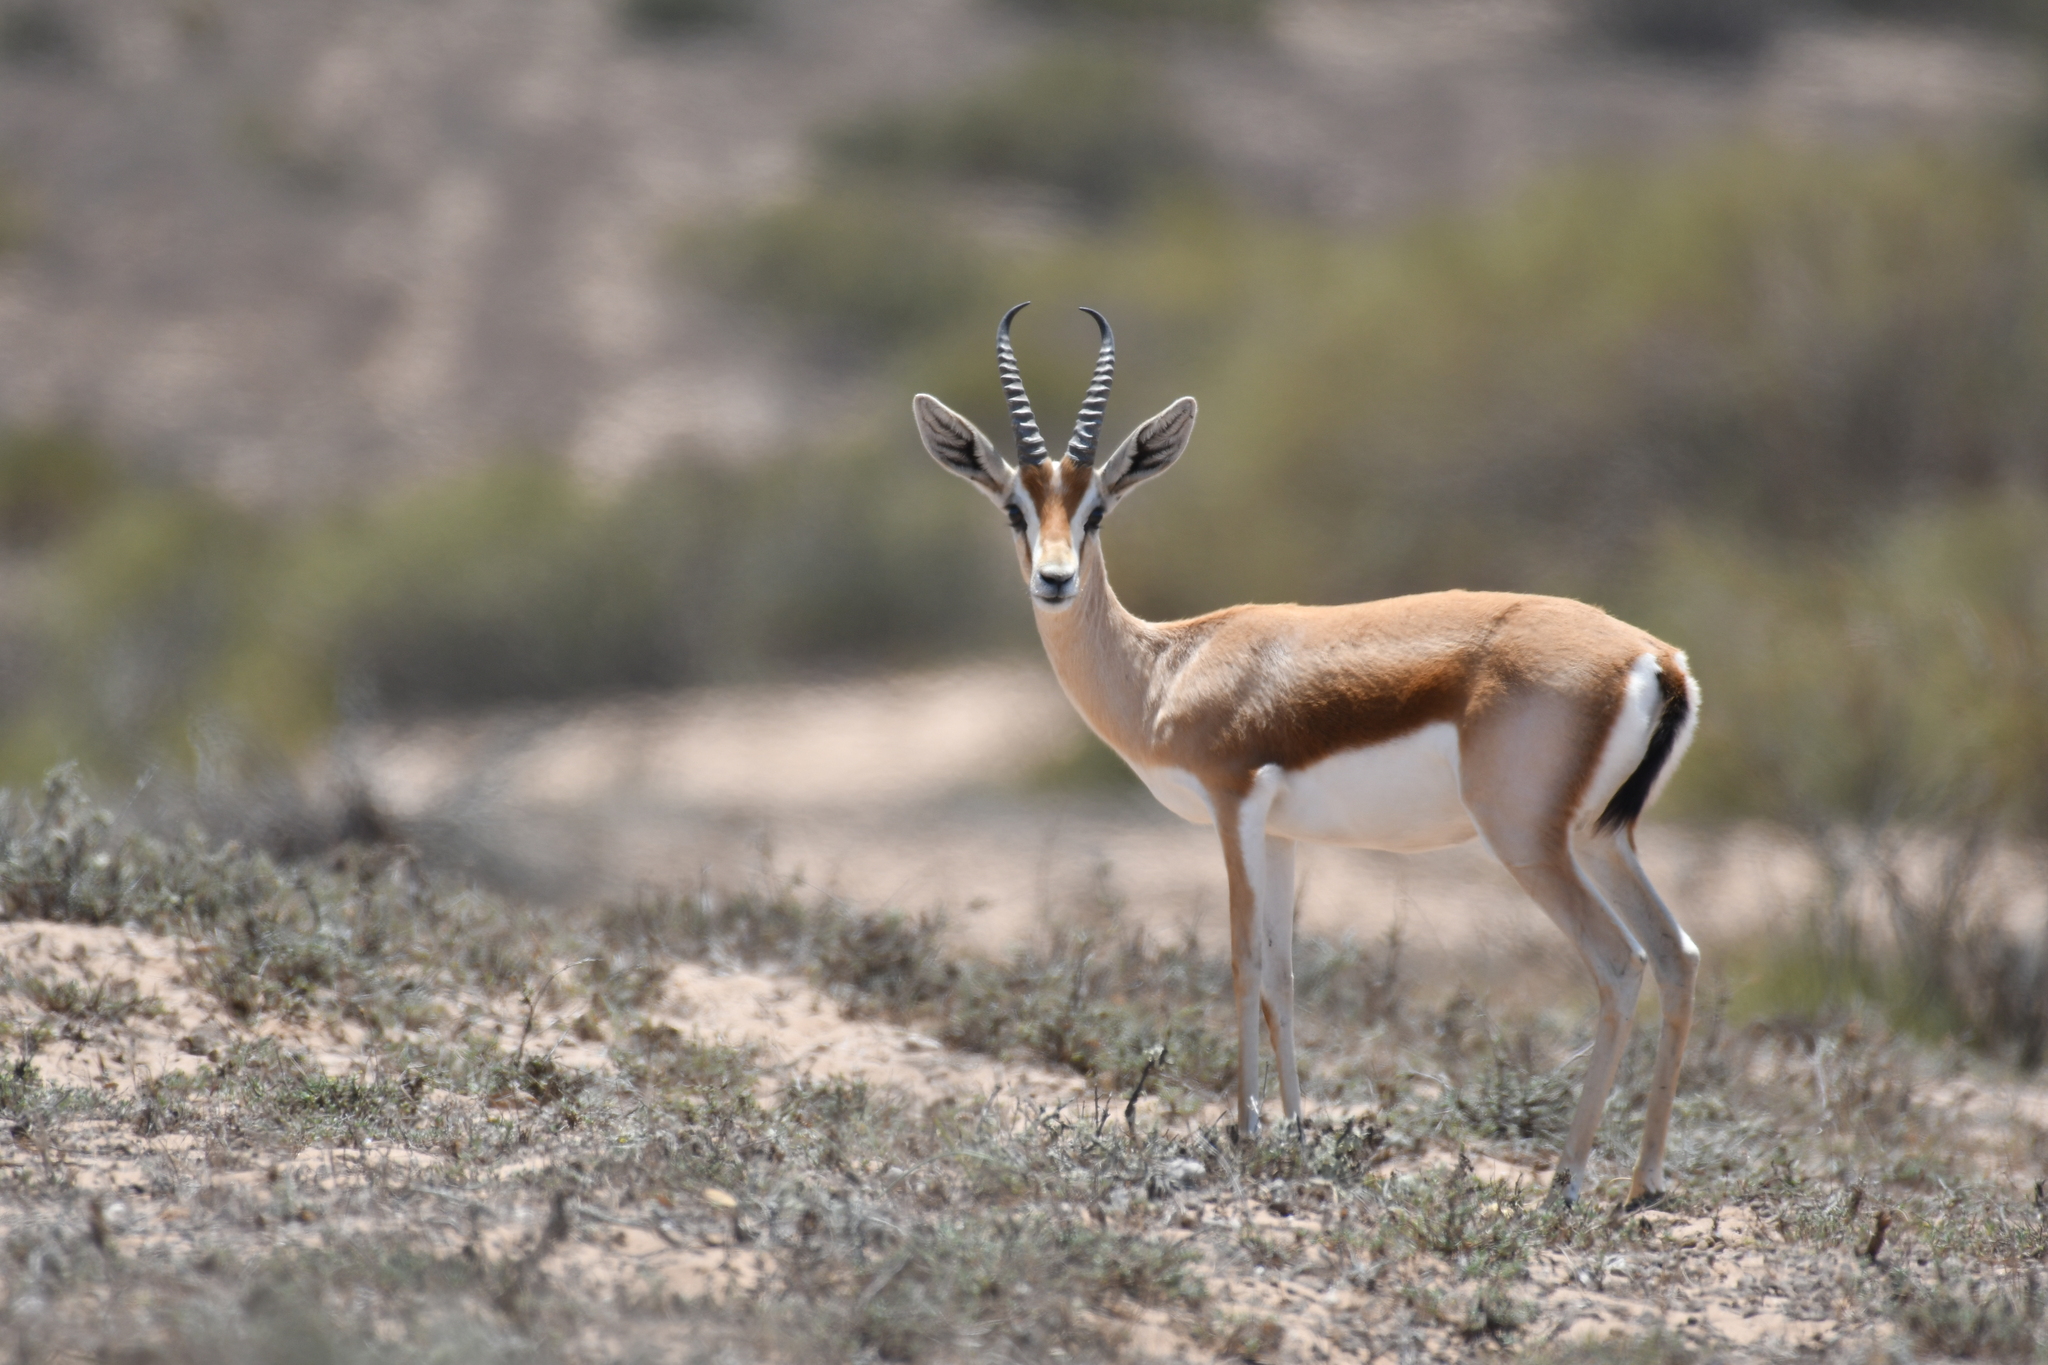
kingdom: Animalia
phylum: Chordata
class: Mammalia
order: Artiodactyla
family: Bovidae
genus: Gazella
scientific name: Gazella dorcas
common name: Dorcas gazelle
